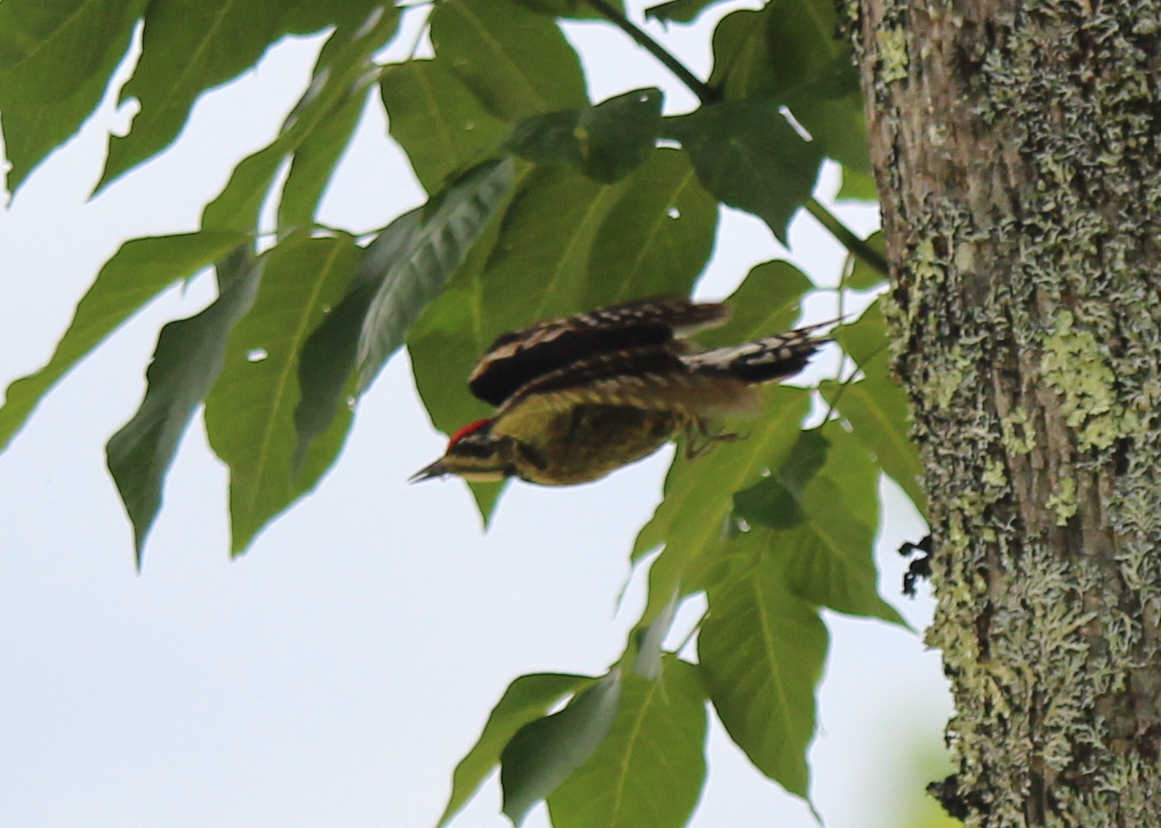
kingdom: Animalia
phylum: Chordata
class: Aves
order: Piciformes
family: Picidae
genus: Sphyrapicus
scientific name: Sphyrapicus varius
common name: Yellow-bellied sapsucker
